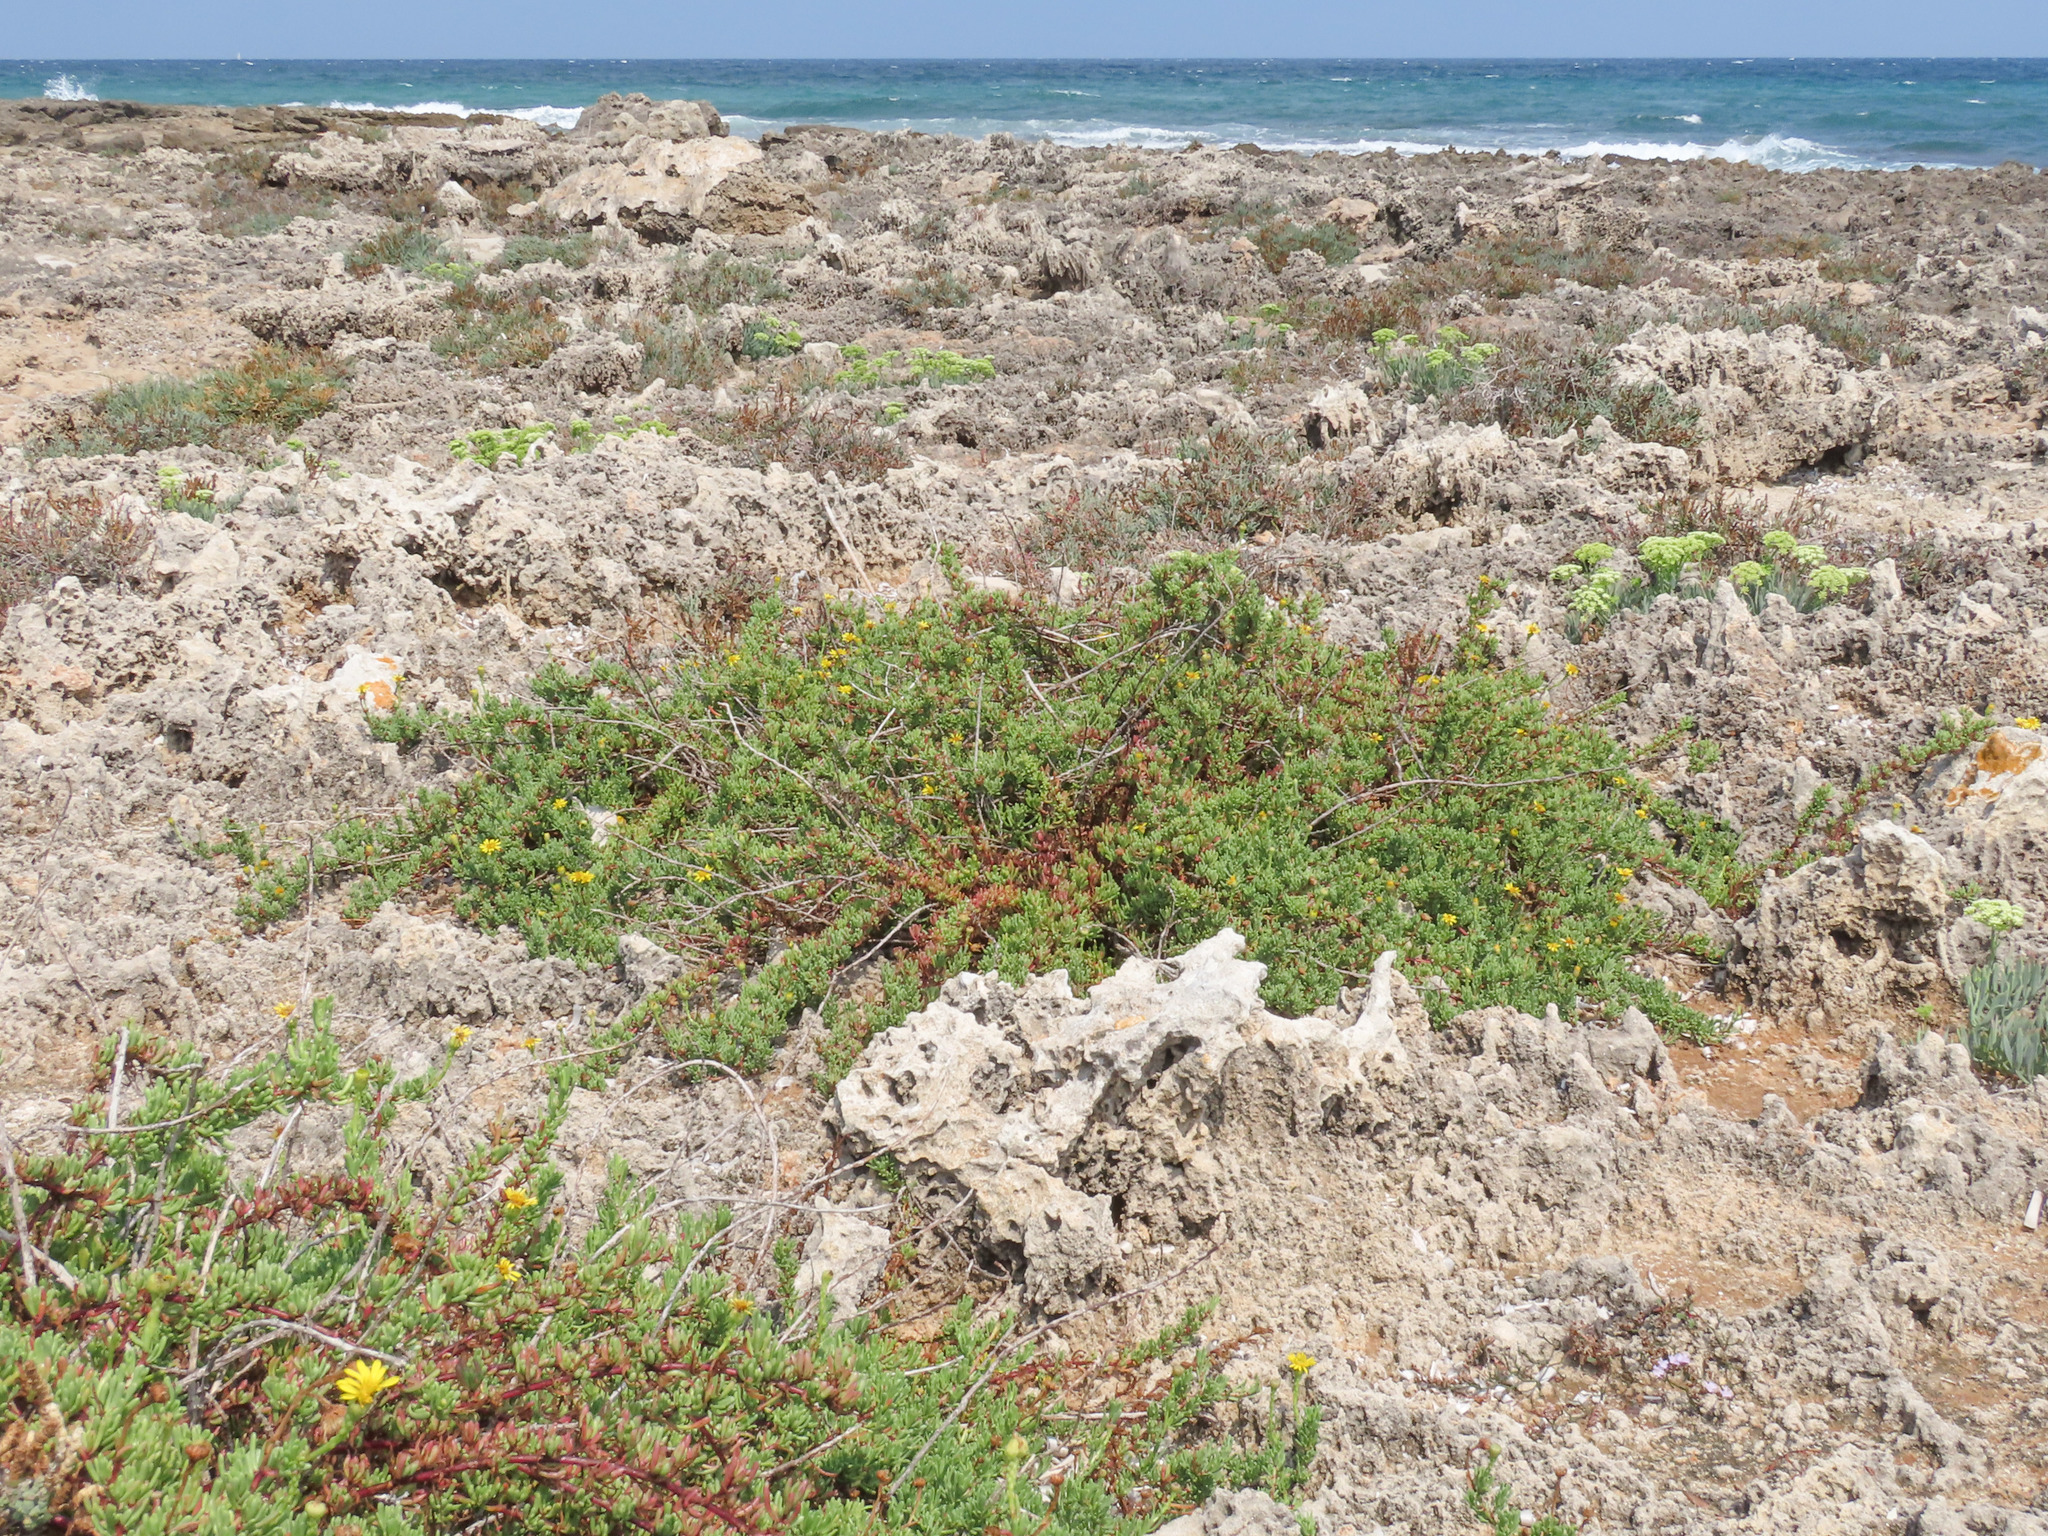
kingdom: Plantae
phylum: Tracheophyta
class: Magnoliopsida
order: Asterales
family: Asteraceae
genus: Limbarda
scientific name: Limbarda crithmoides
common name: Golden samphire
